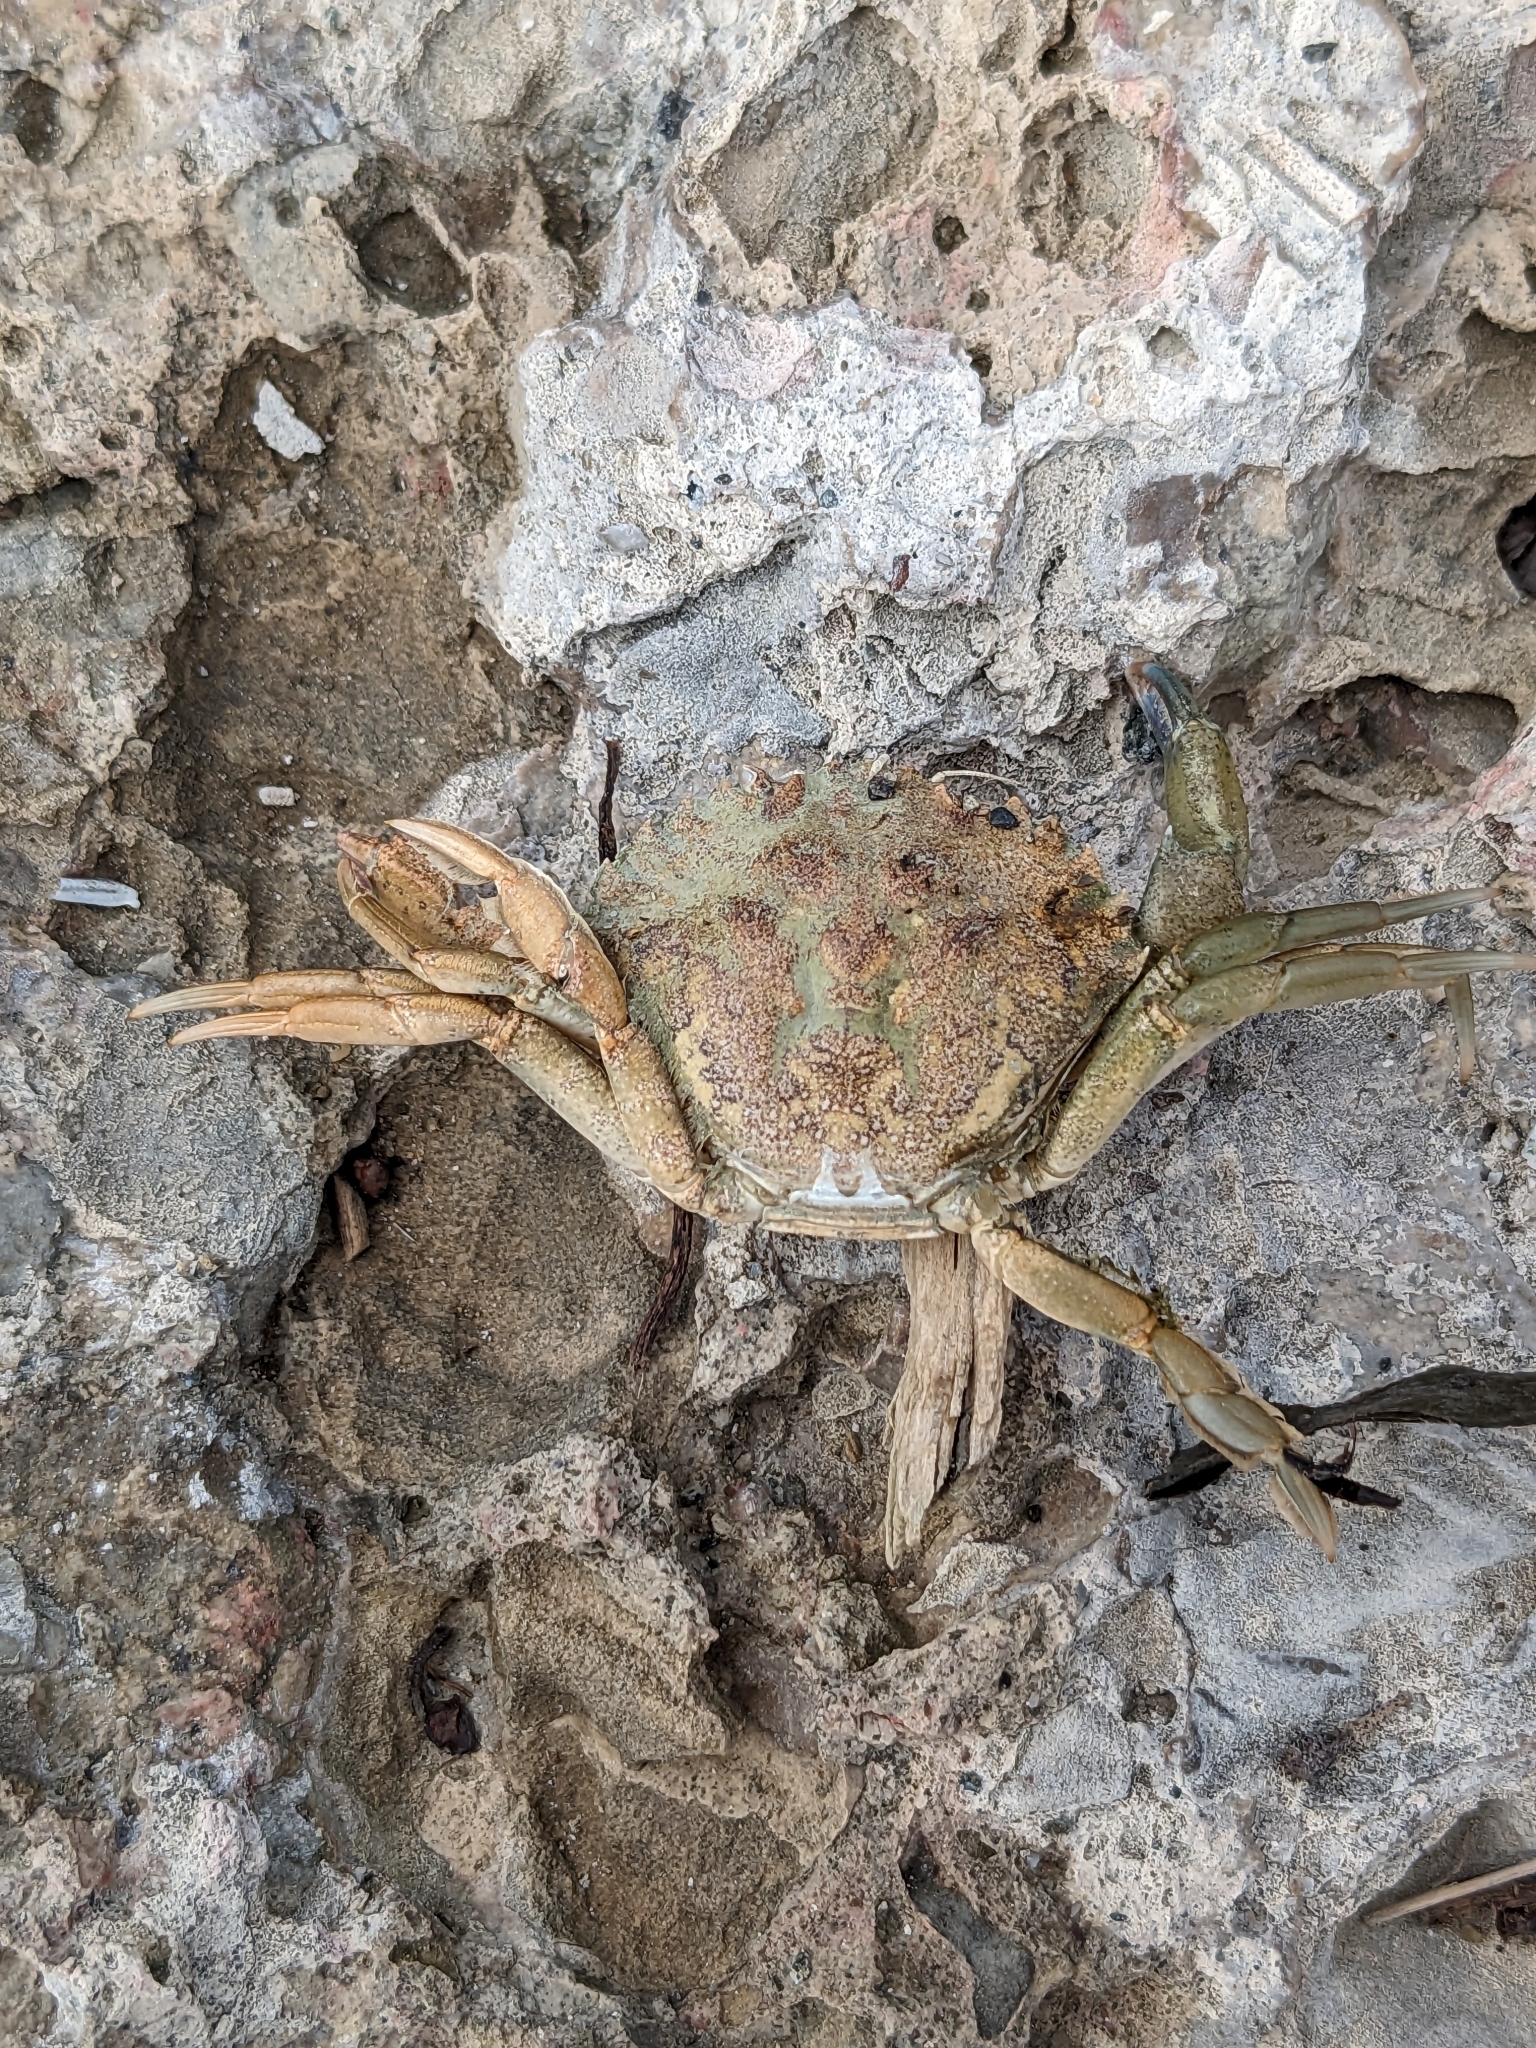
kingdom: Animalia
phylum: Arthropoda
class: Malacostraca
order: Decapoda
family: Carcinidae
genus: Carcinus
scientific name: Carcinus maenas
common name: European green crab
